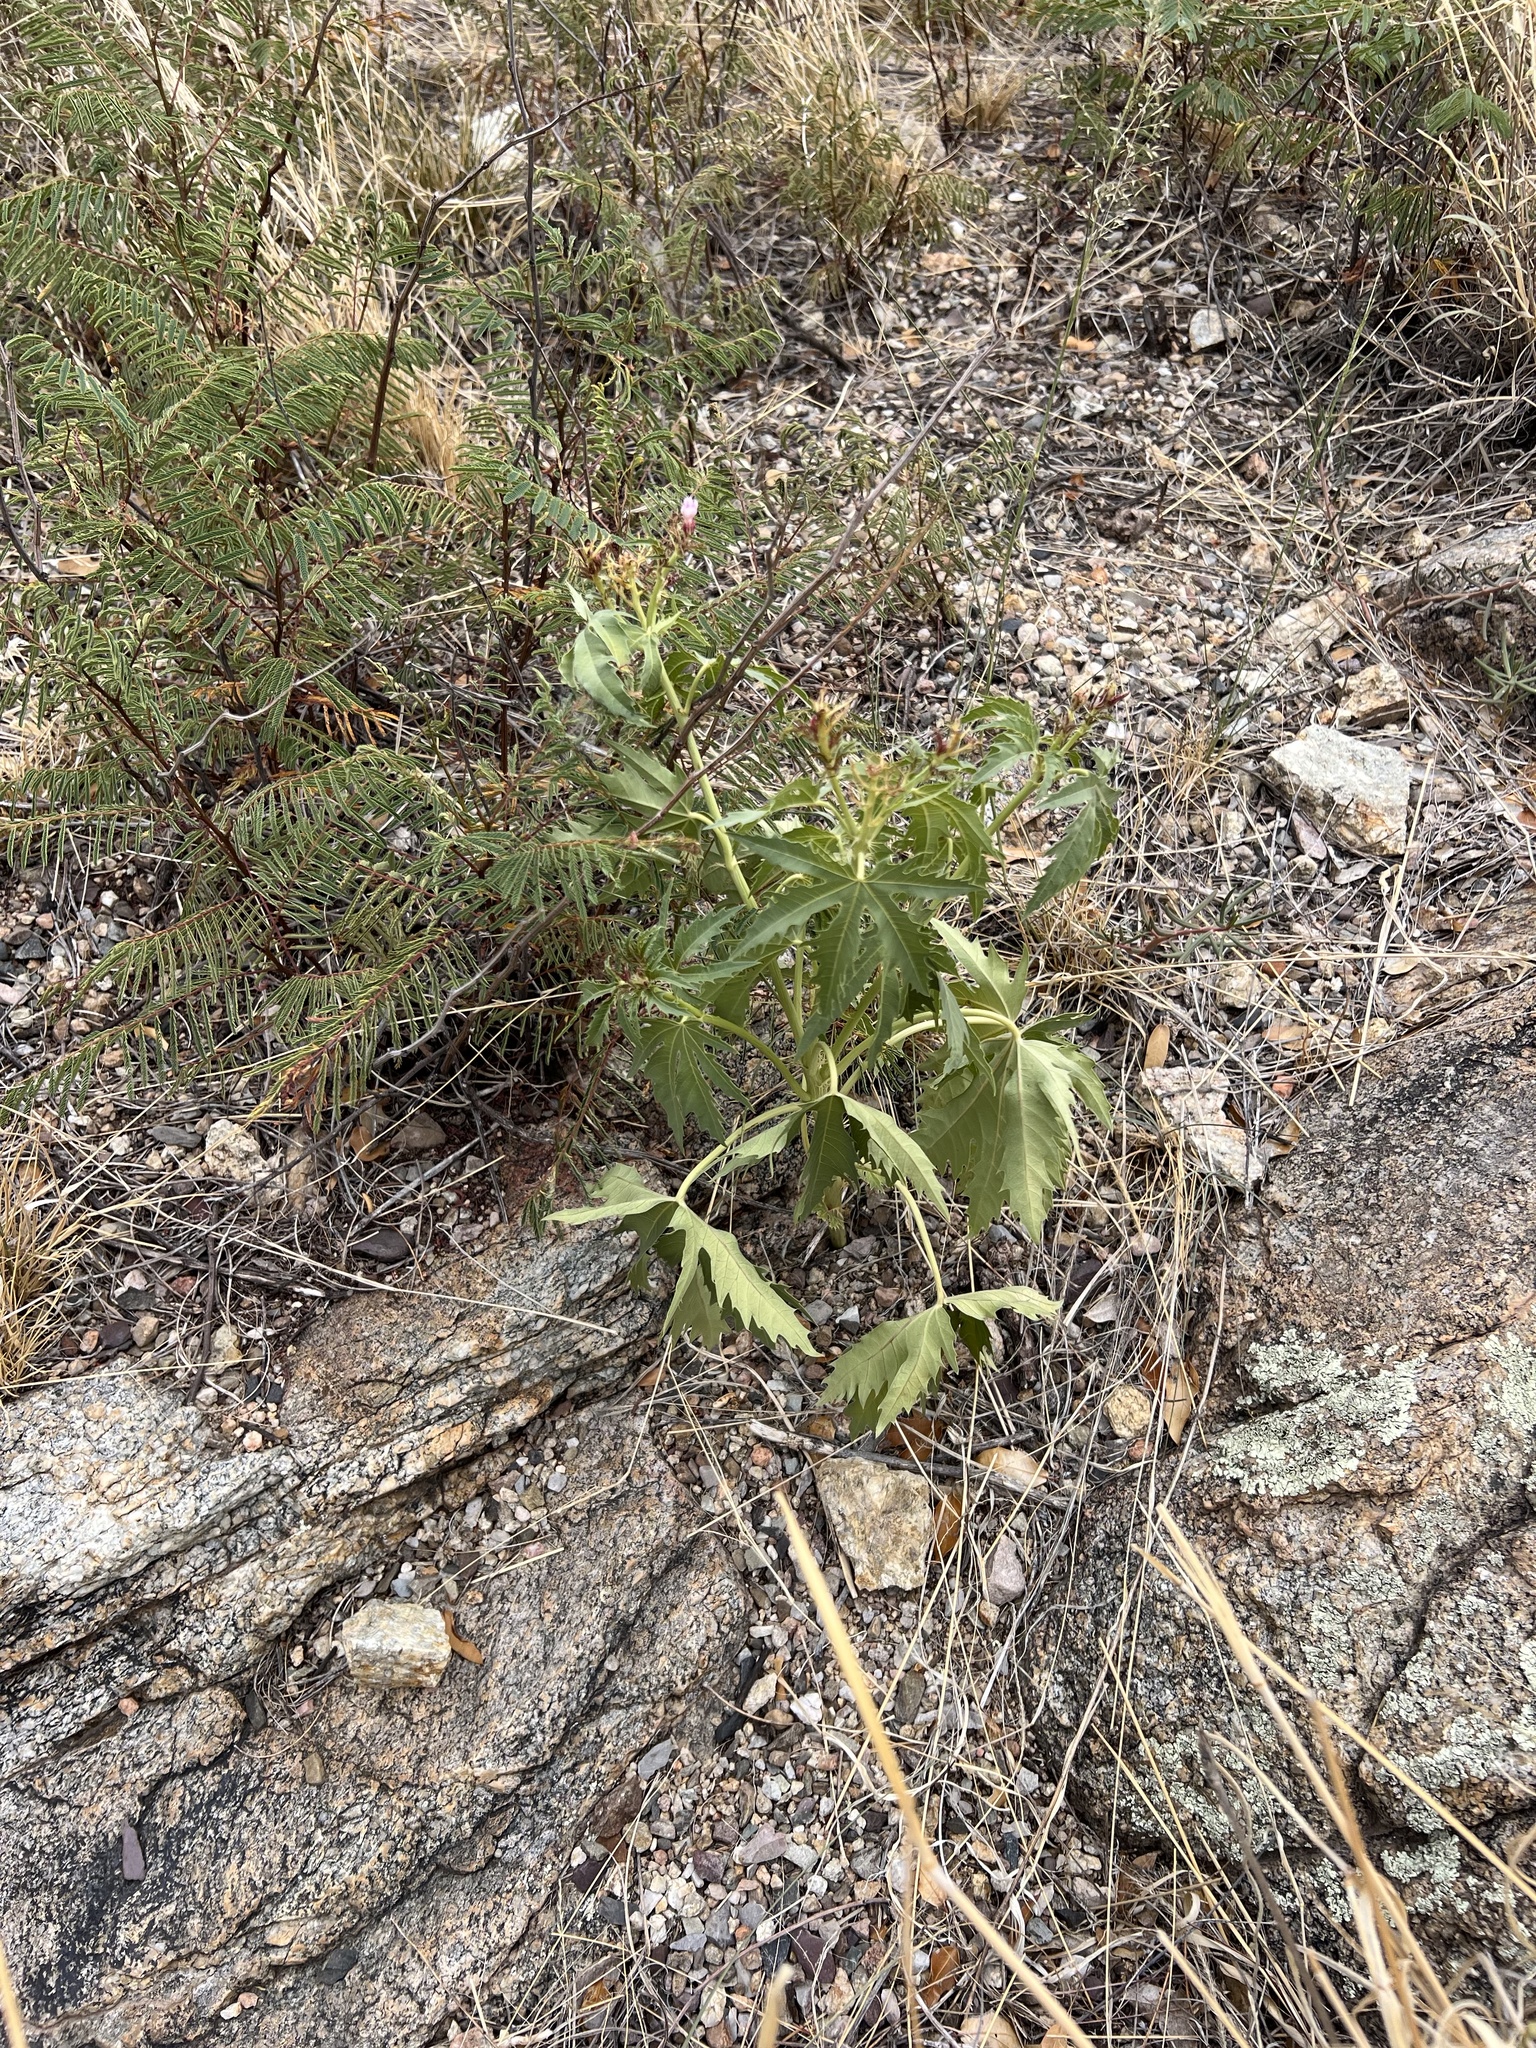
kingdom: Plantae
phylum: Tracheophyta
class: Magnoliopsida
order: Malpighiales
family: Euphorbiaceae
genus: Jatropha
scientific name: Jatropha macrorhiza
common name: Ragged nettlespurge
